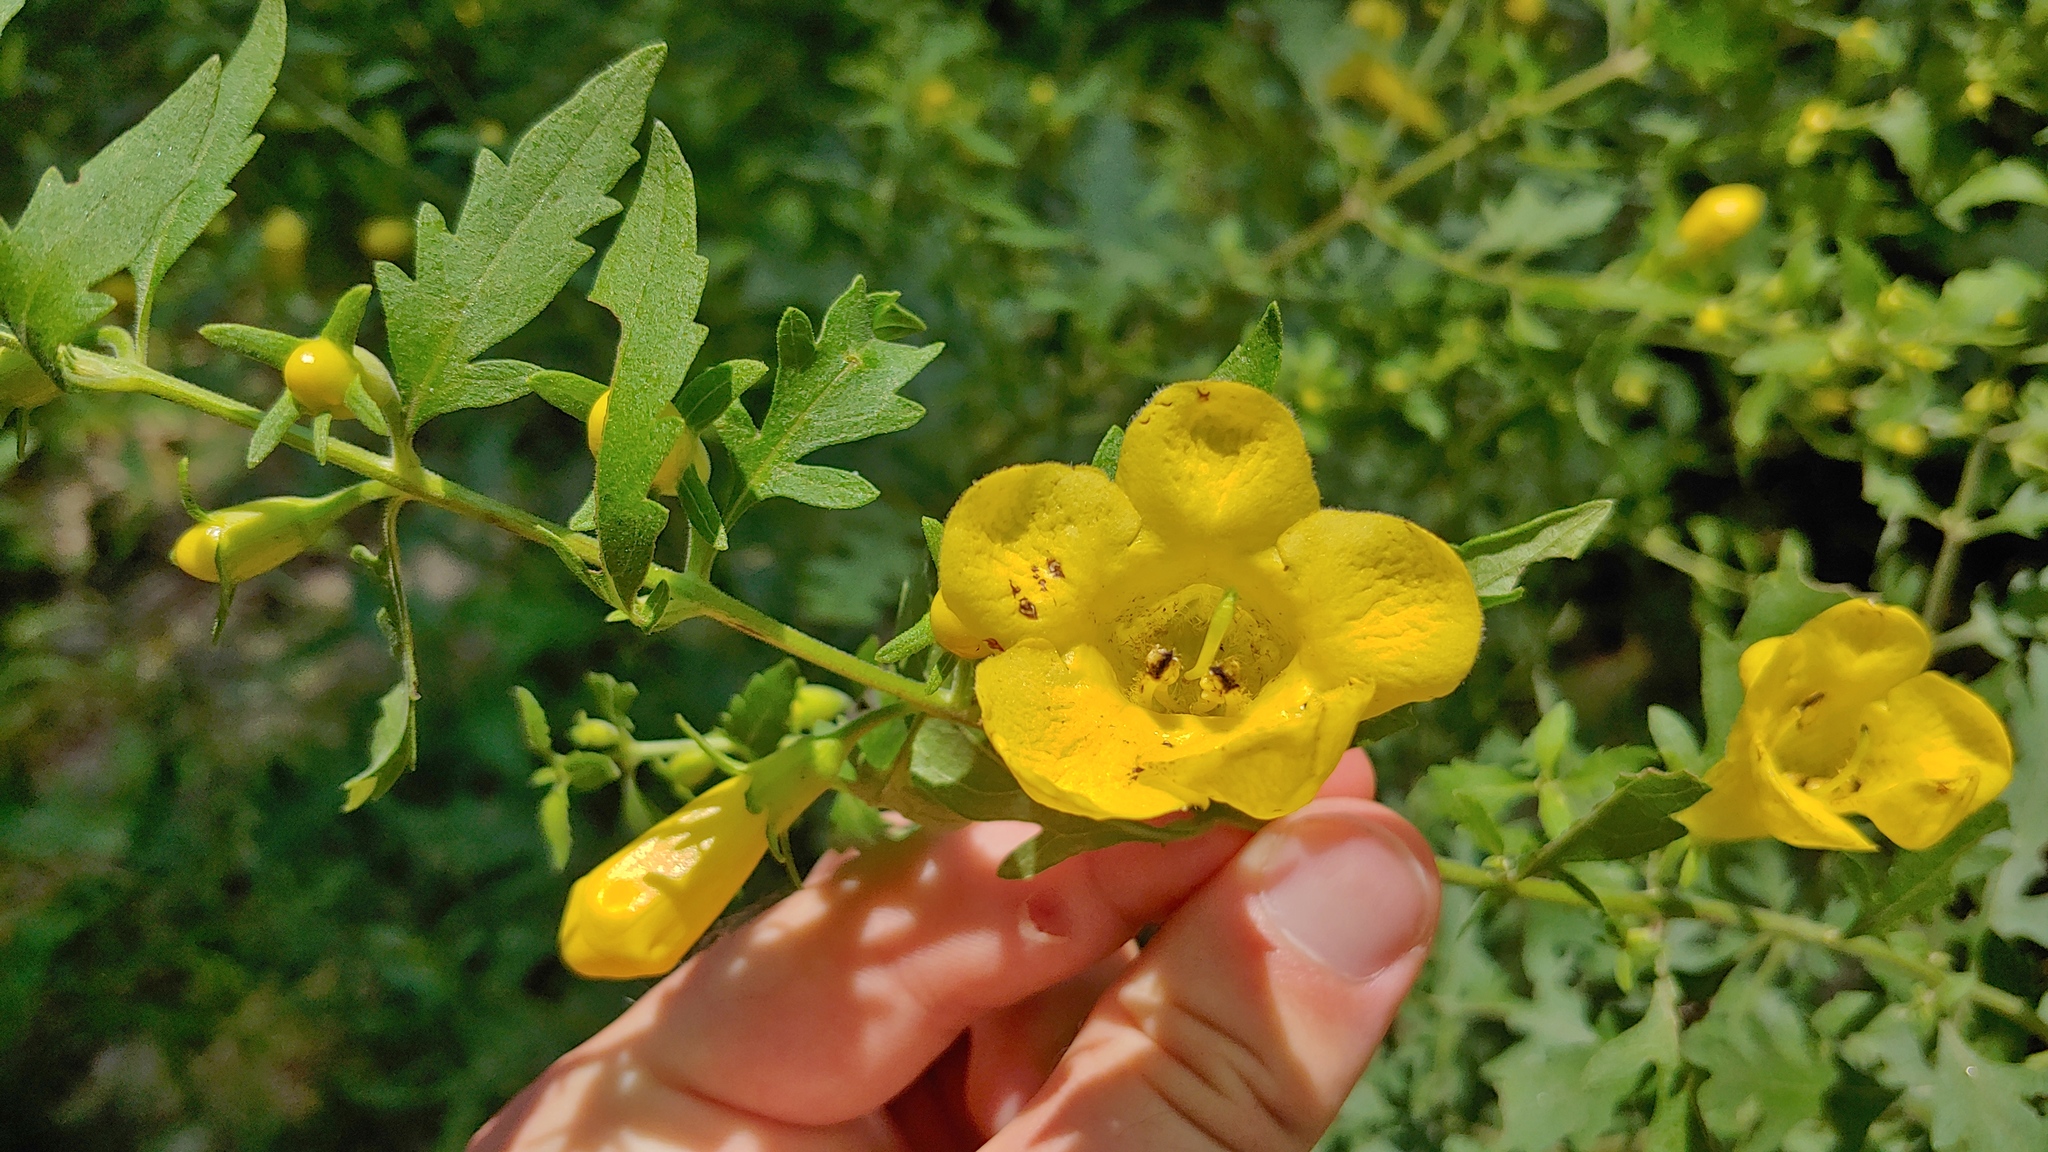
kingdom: Plantae
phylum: Tracheophyta
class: Magnoliopsida
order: Lamiales
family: Orobanchaceae
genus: Aureolaria
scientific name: Aureolaria grandiflora
